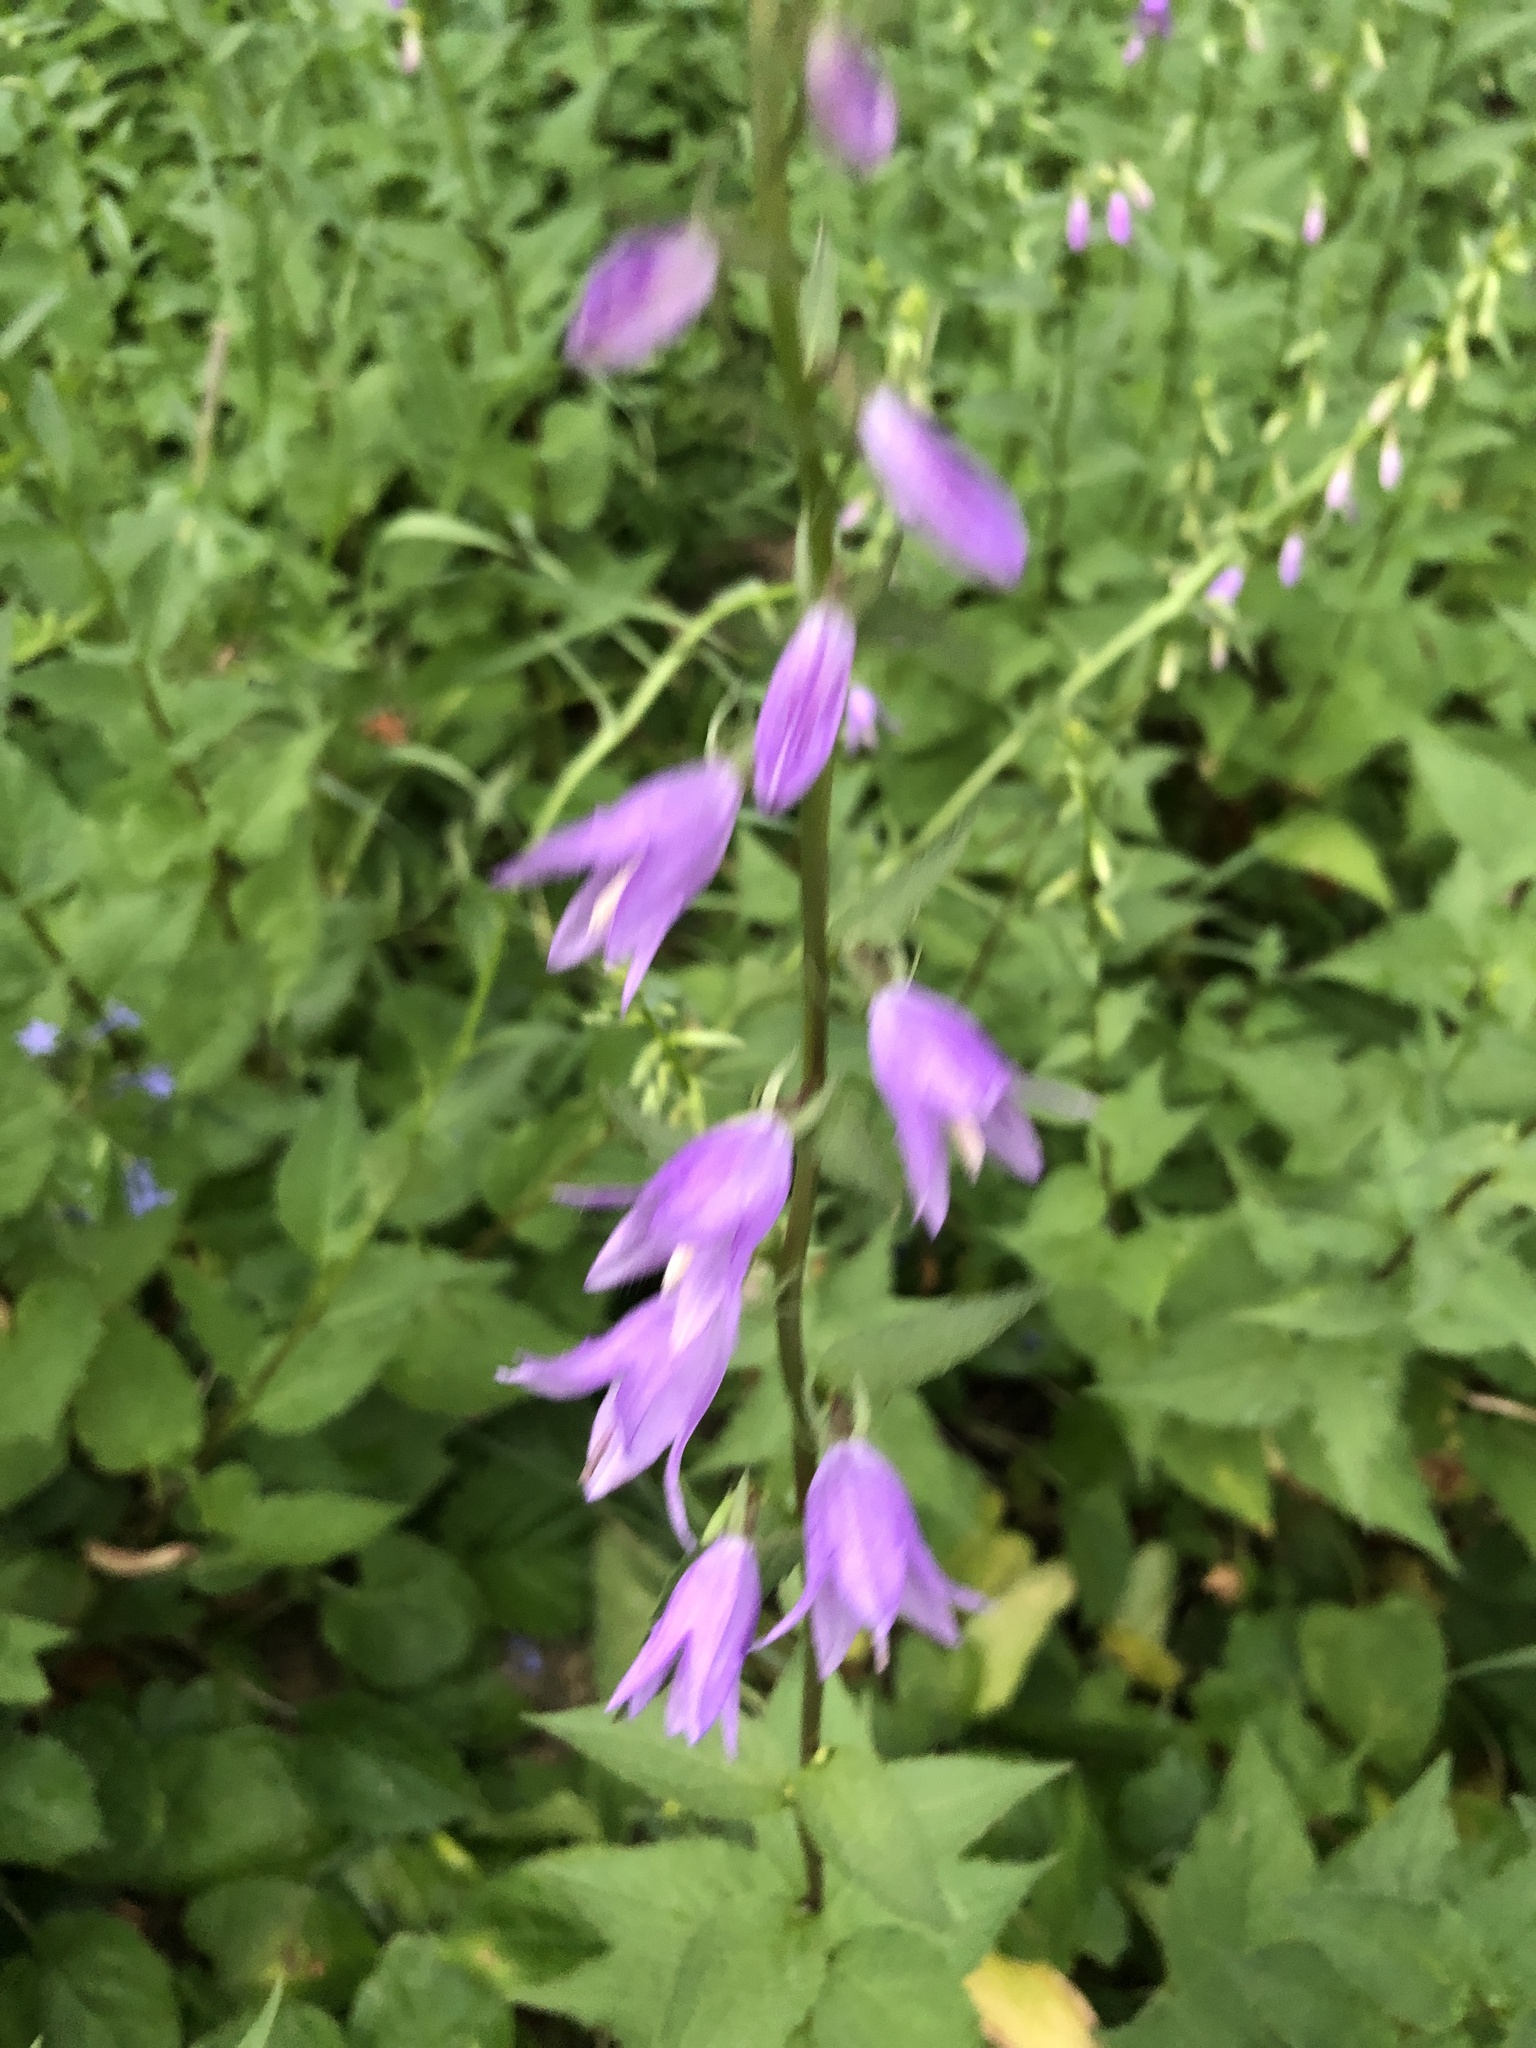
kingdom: Plantae
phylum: Tracheophyta
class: Magnoliopsida
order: Asterales
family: Campanulaceae
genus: Campanula
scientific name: Campanula rapunculoides
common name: Creeping bellflower
